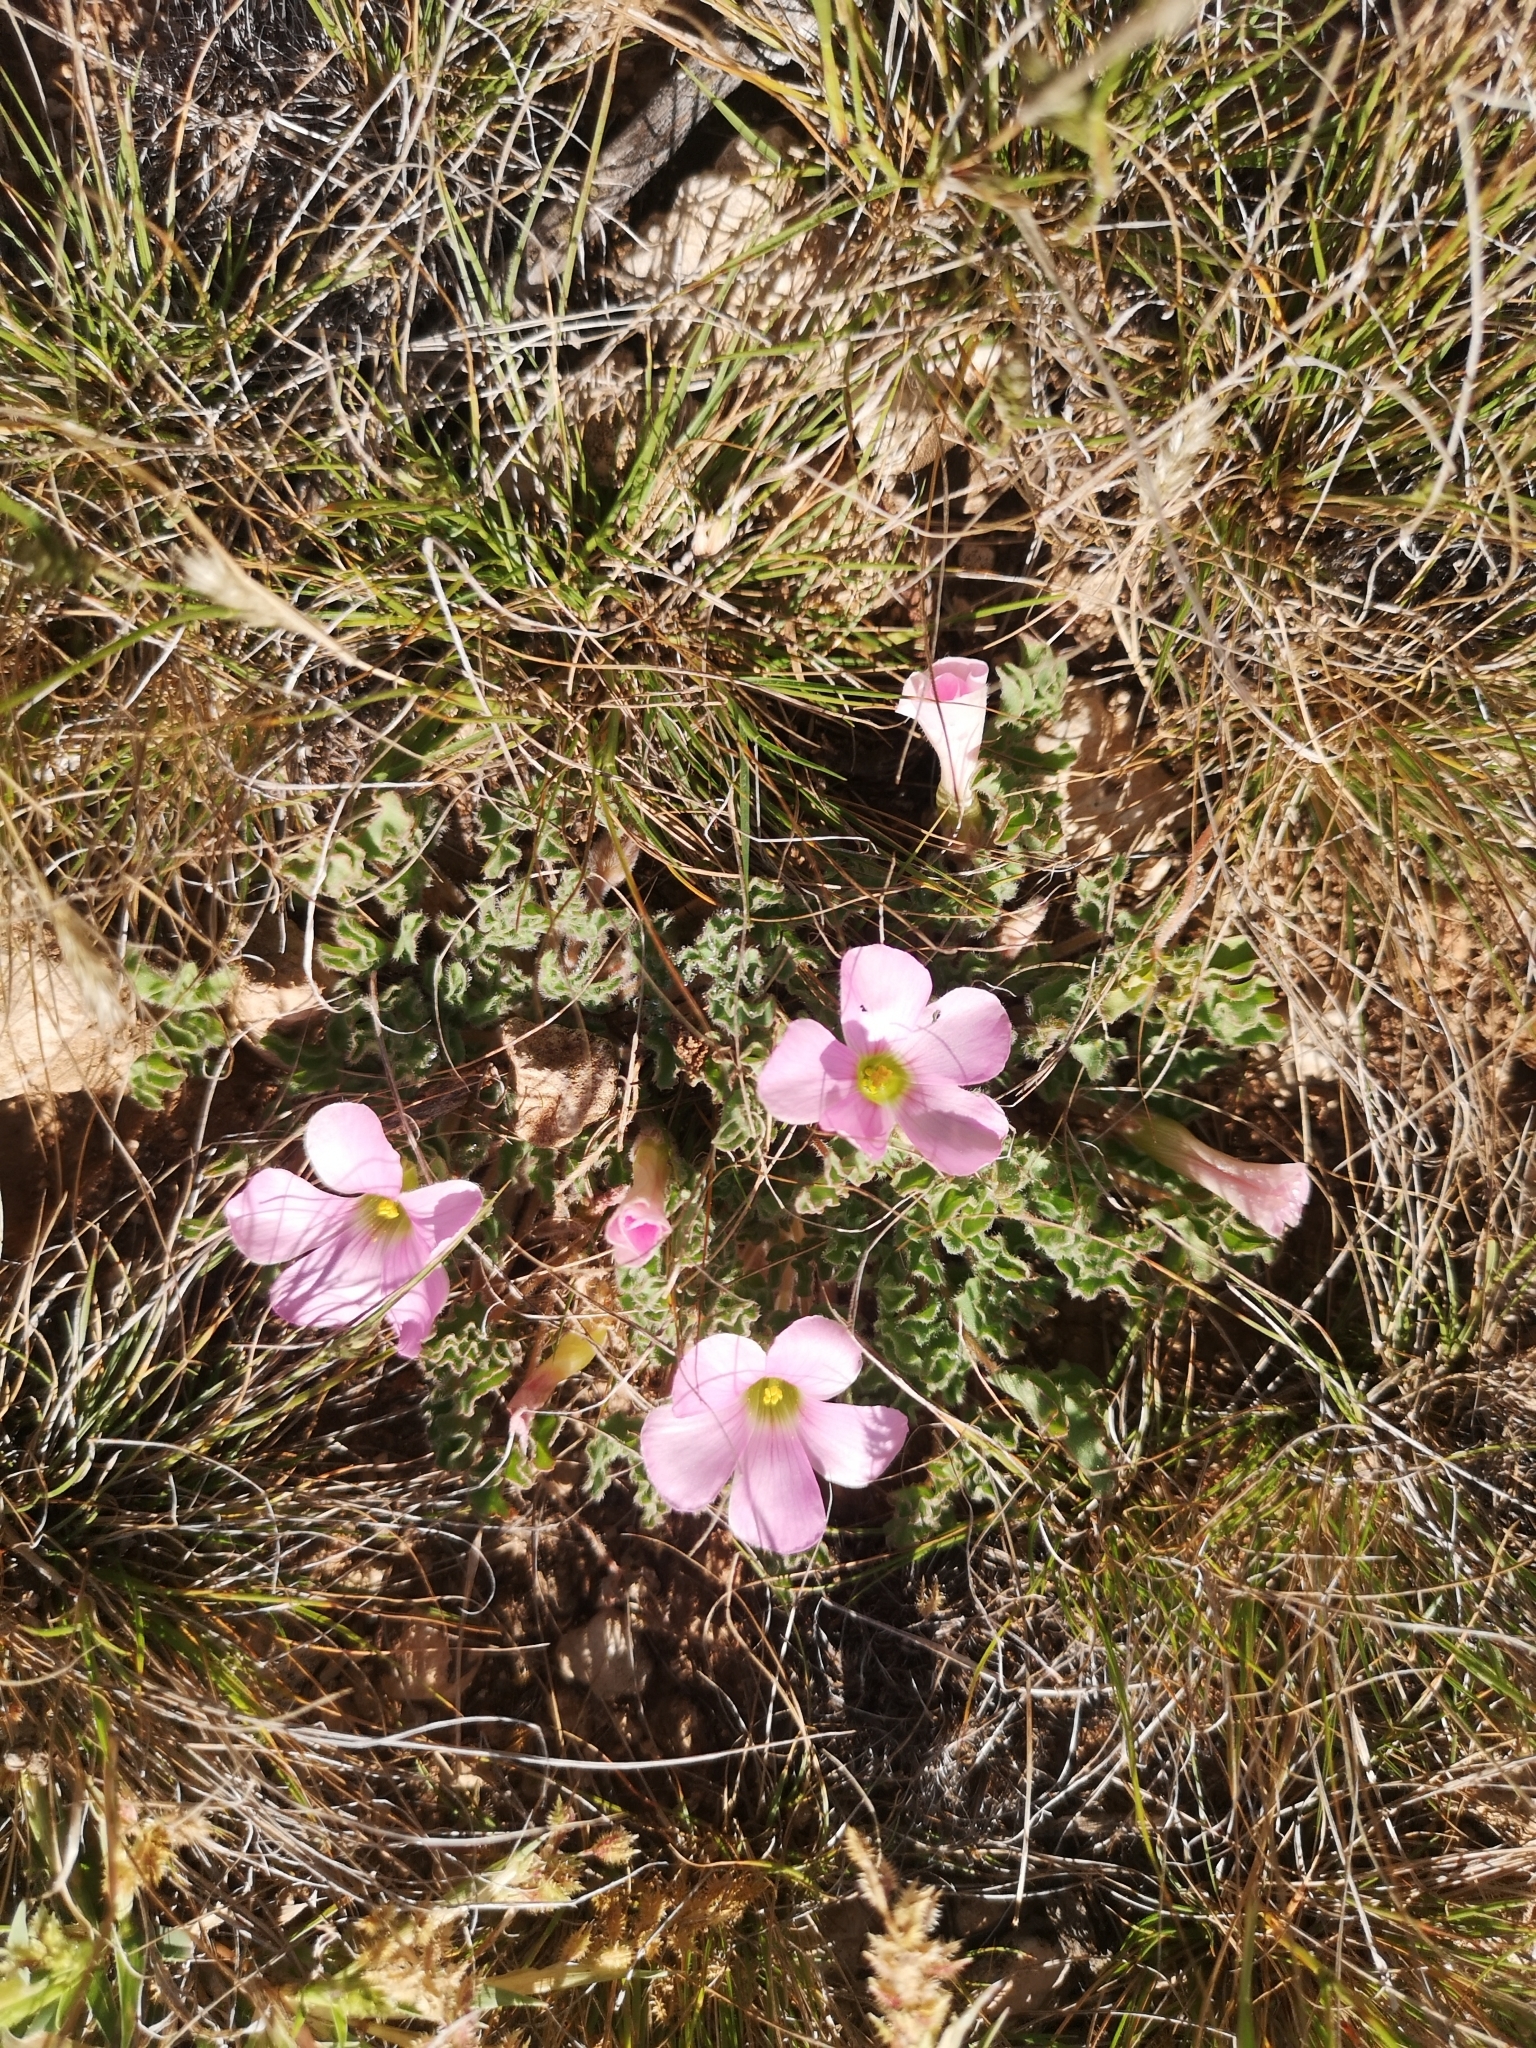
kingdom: Plantae
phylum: Tracheophyta
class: Magnoliopsida
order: Oxalidales
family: Oxalidaceae
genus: Oxalis
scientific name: Oxalis hirsuta
